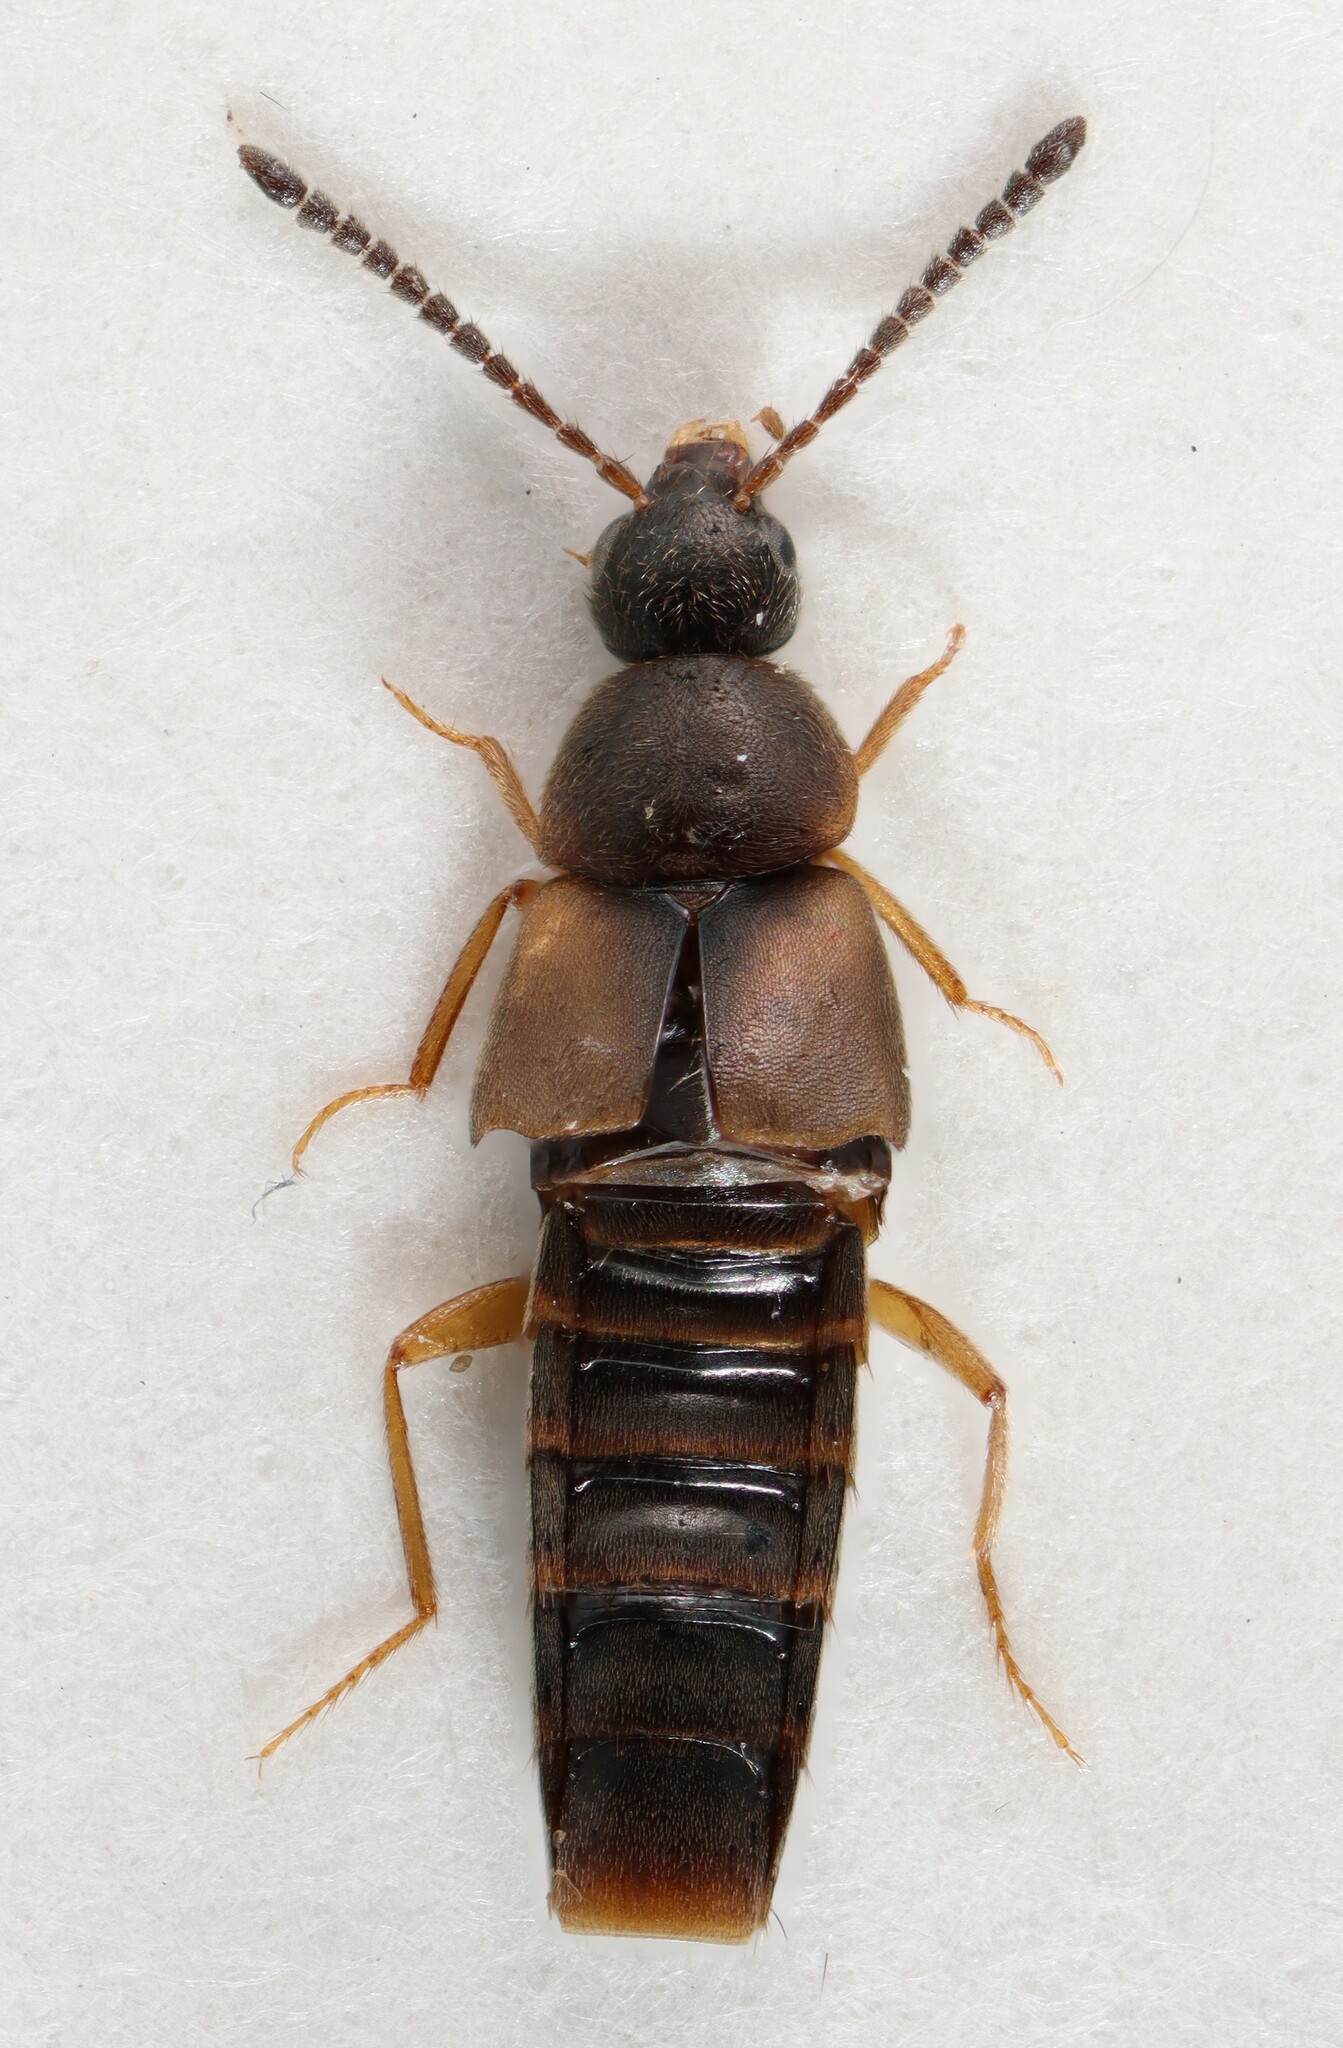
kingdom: Animalia
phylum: Arthropoda
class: Insecta
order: Coleoptera
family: Staphylinidae
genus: Oxypoda
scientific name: Oxypoda acuminata
